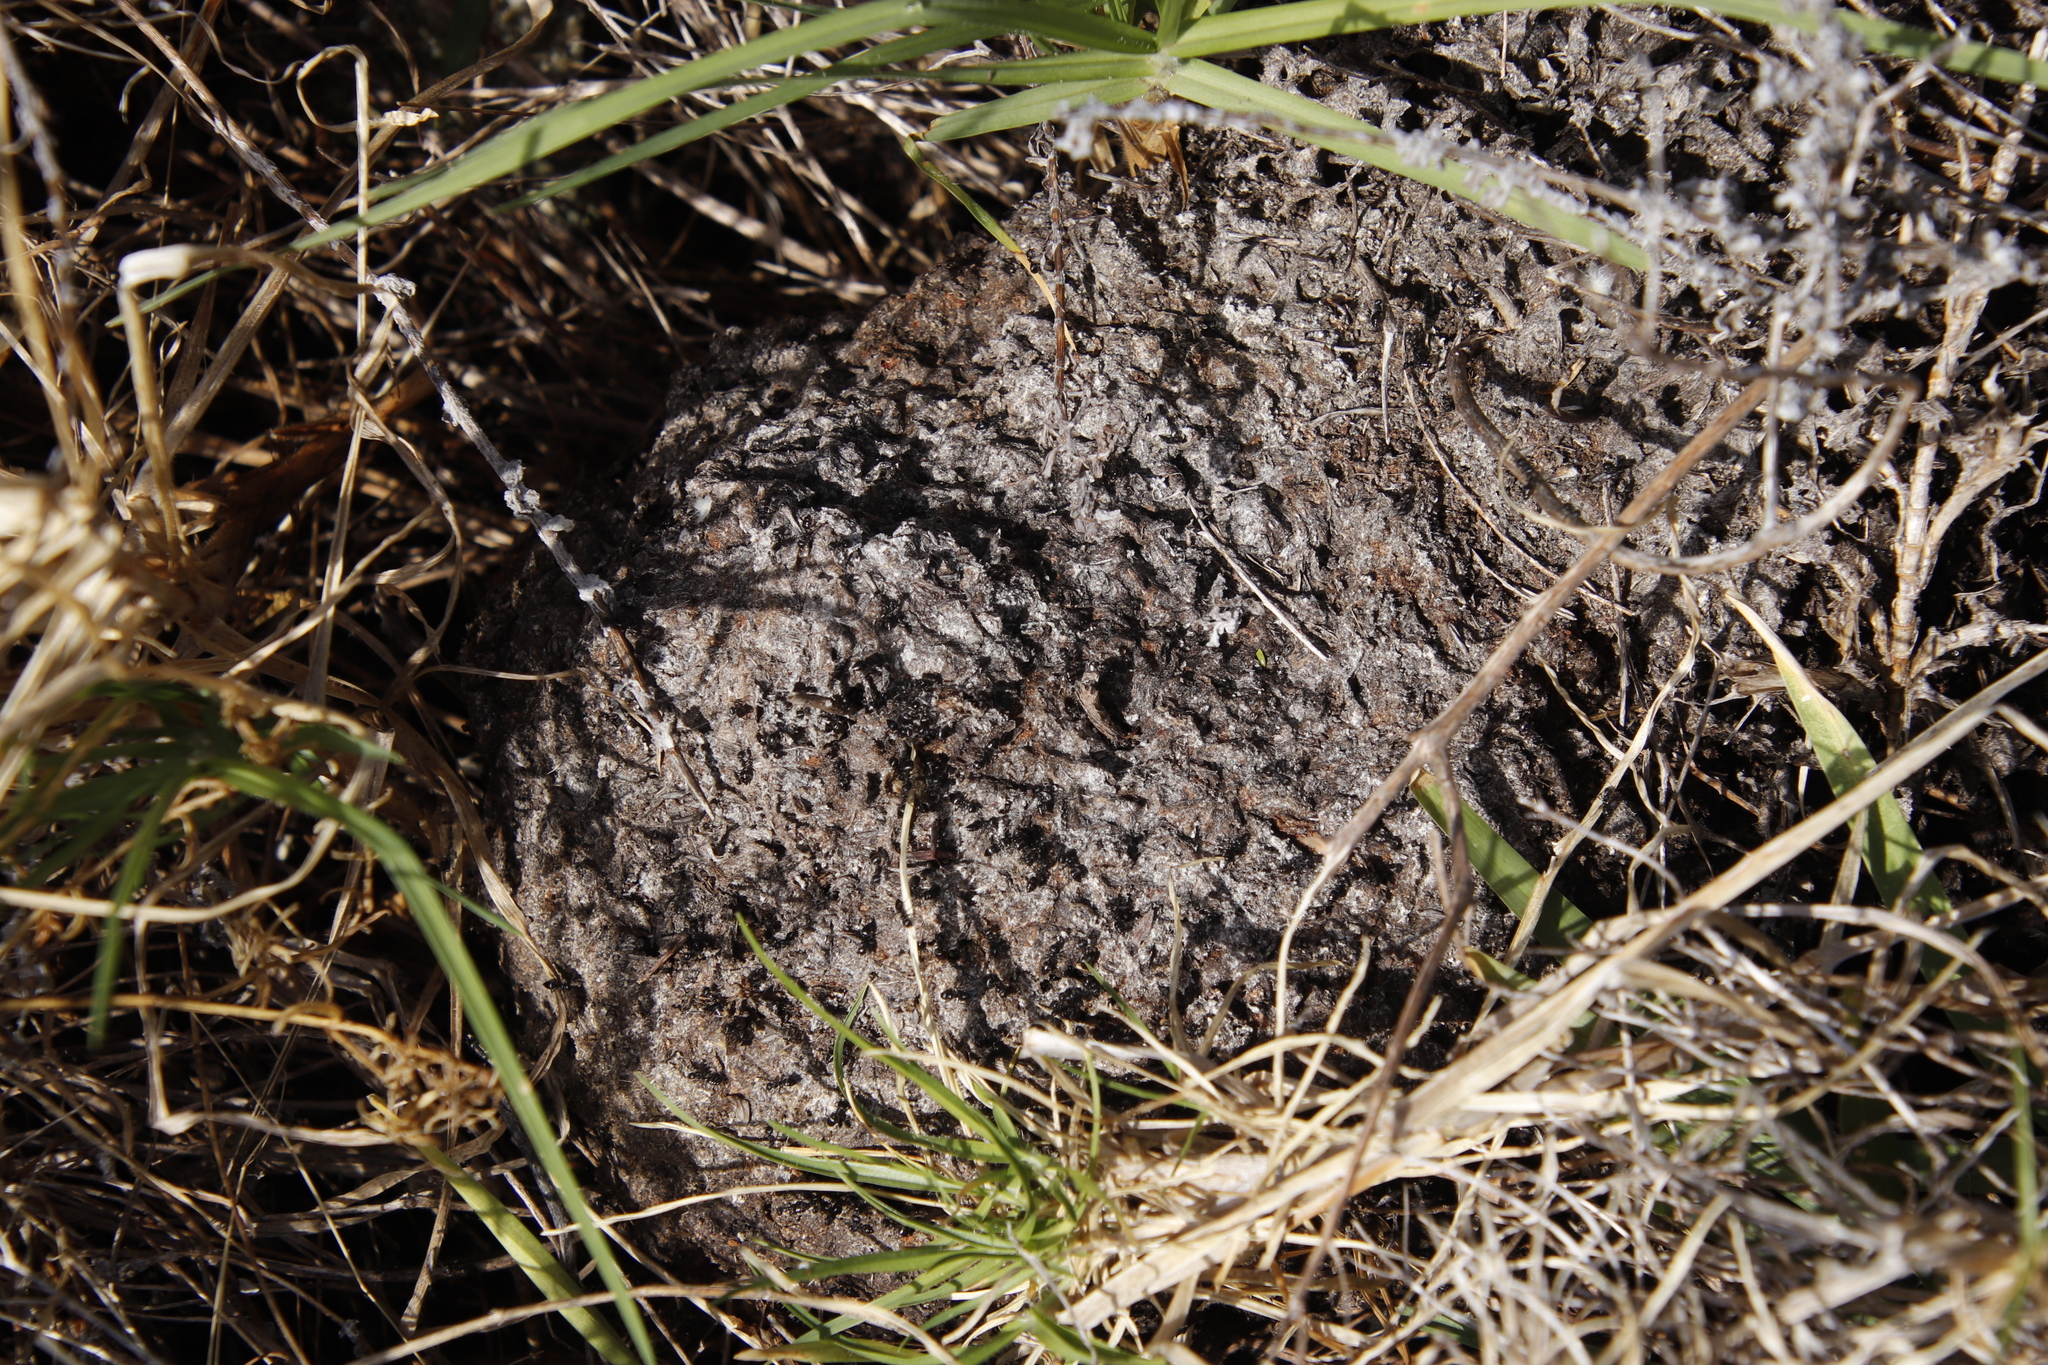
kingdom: Animalia
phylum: Arthropoda
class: Insecta
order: Hymenoptera
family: Formicidae
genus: Crematogaster
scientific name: Crematogaster peringueyi
